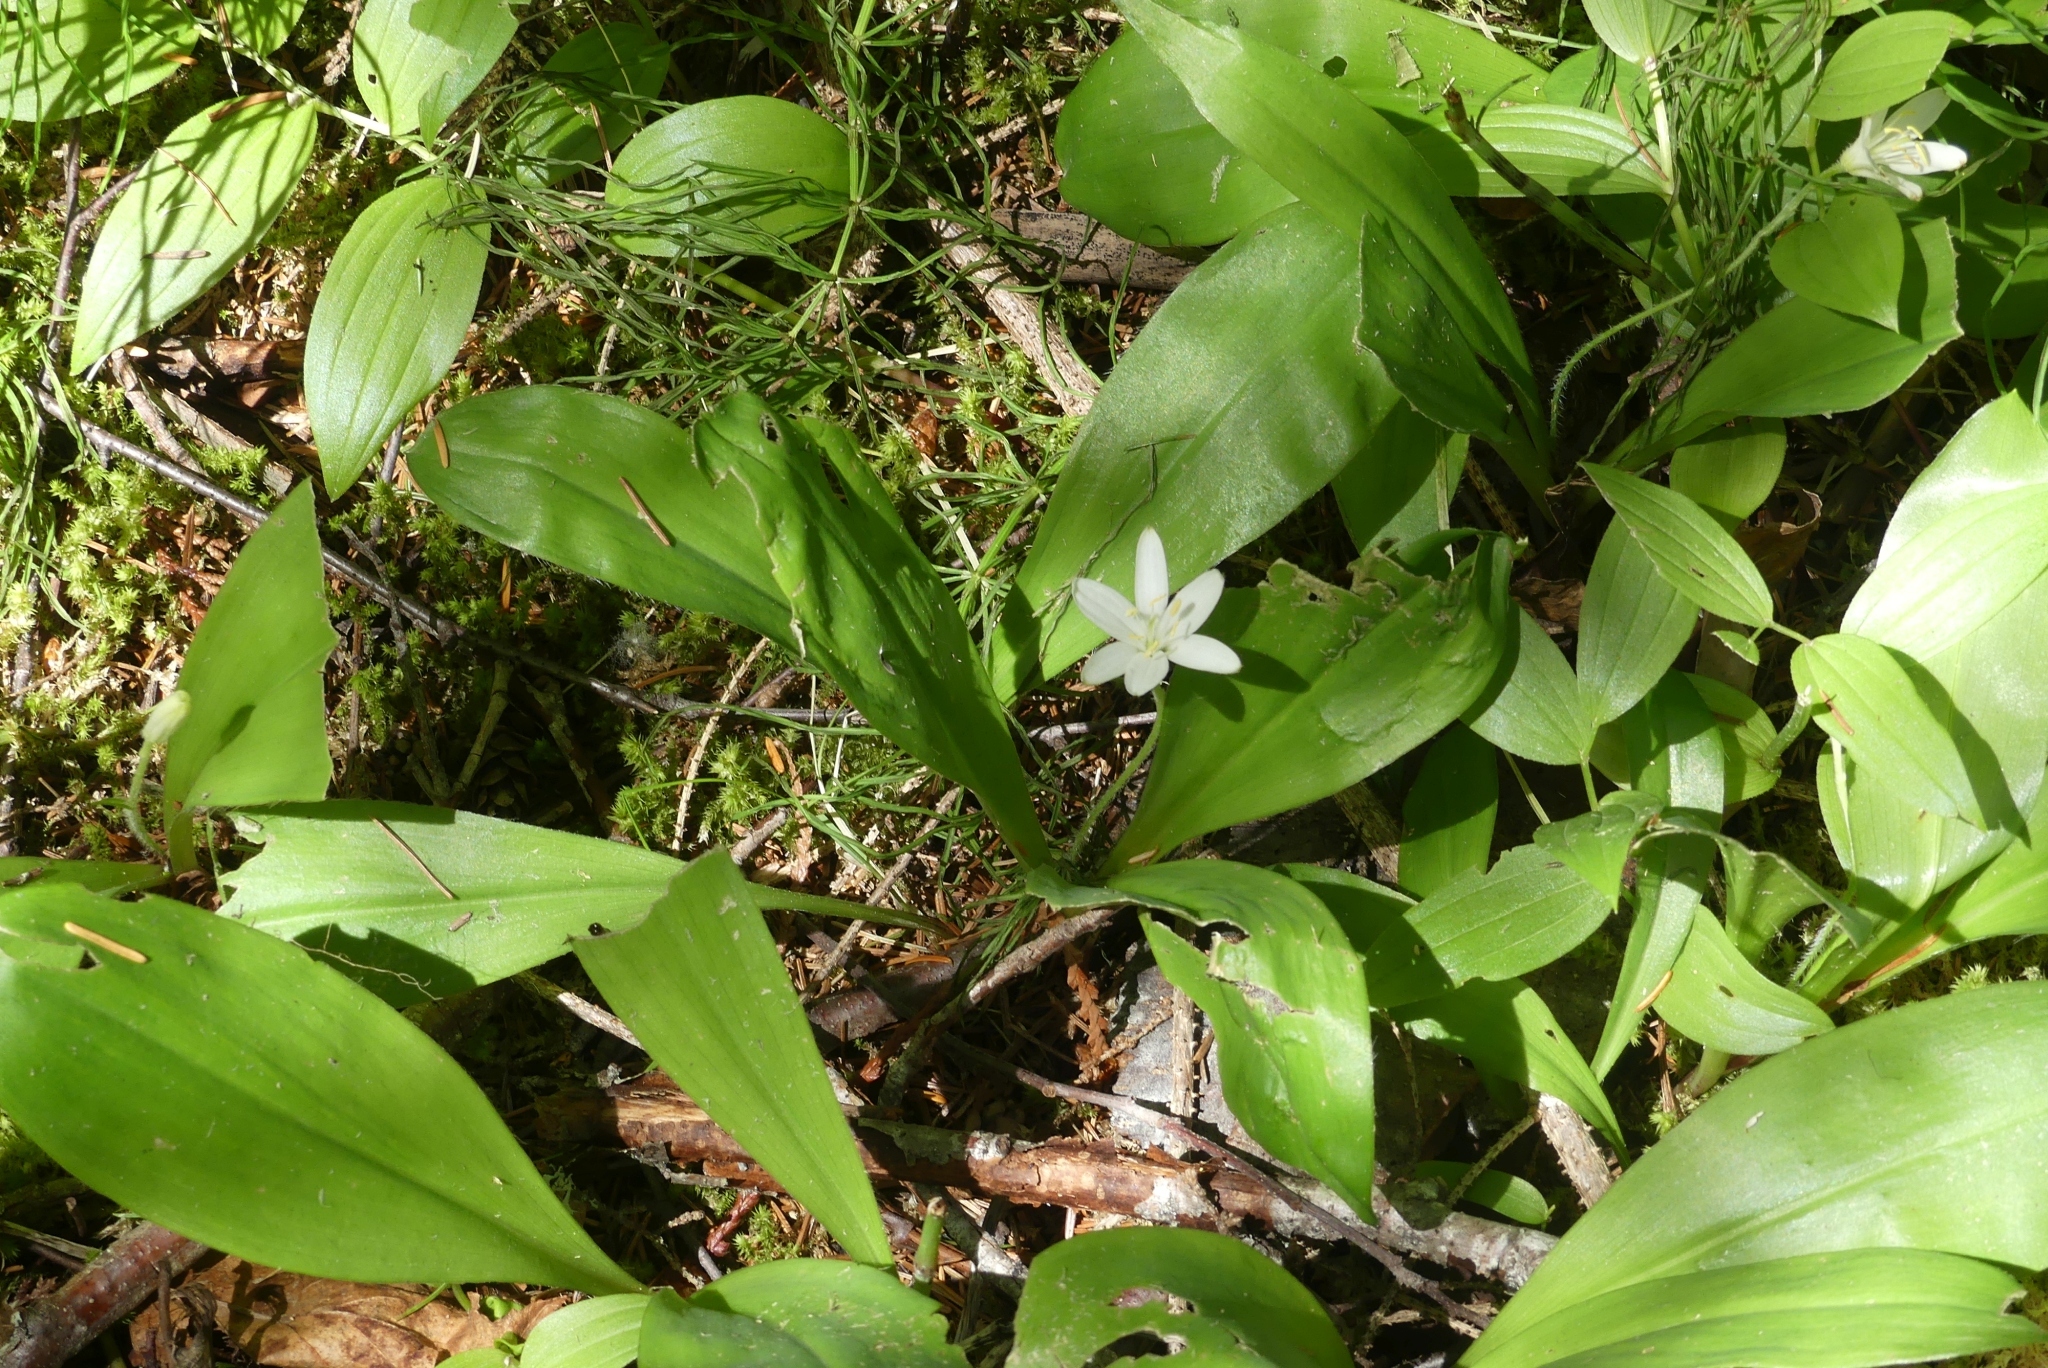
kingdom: Plantae
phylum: Tracheophyta
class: Liliopsida
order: Liliales
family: Liliaceae
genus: Clintonia
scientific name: Clintonia uniflora
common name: Queen's cup
